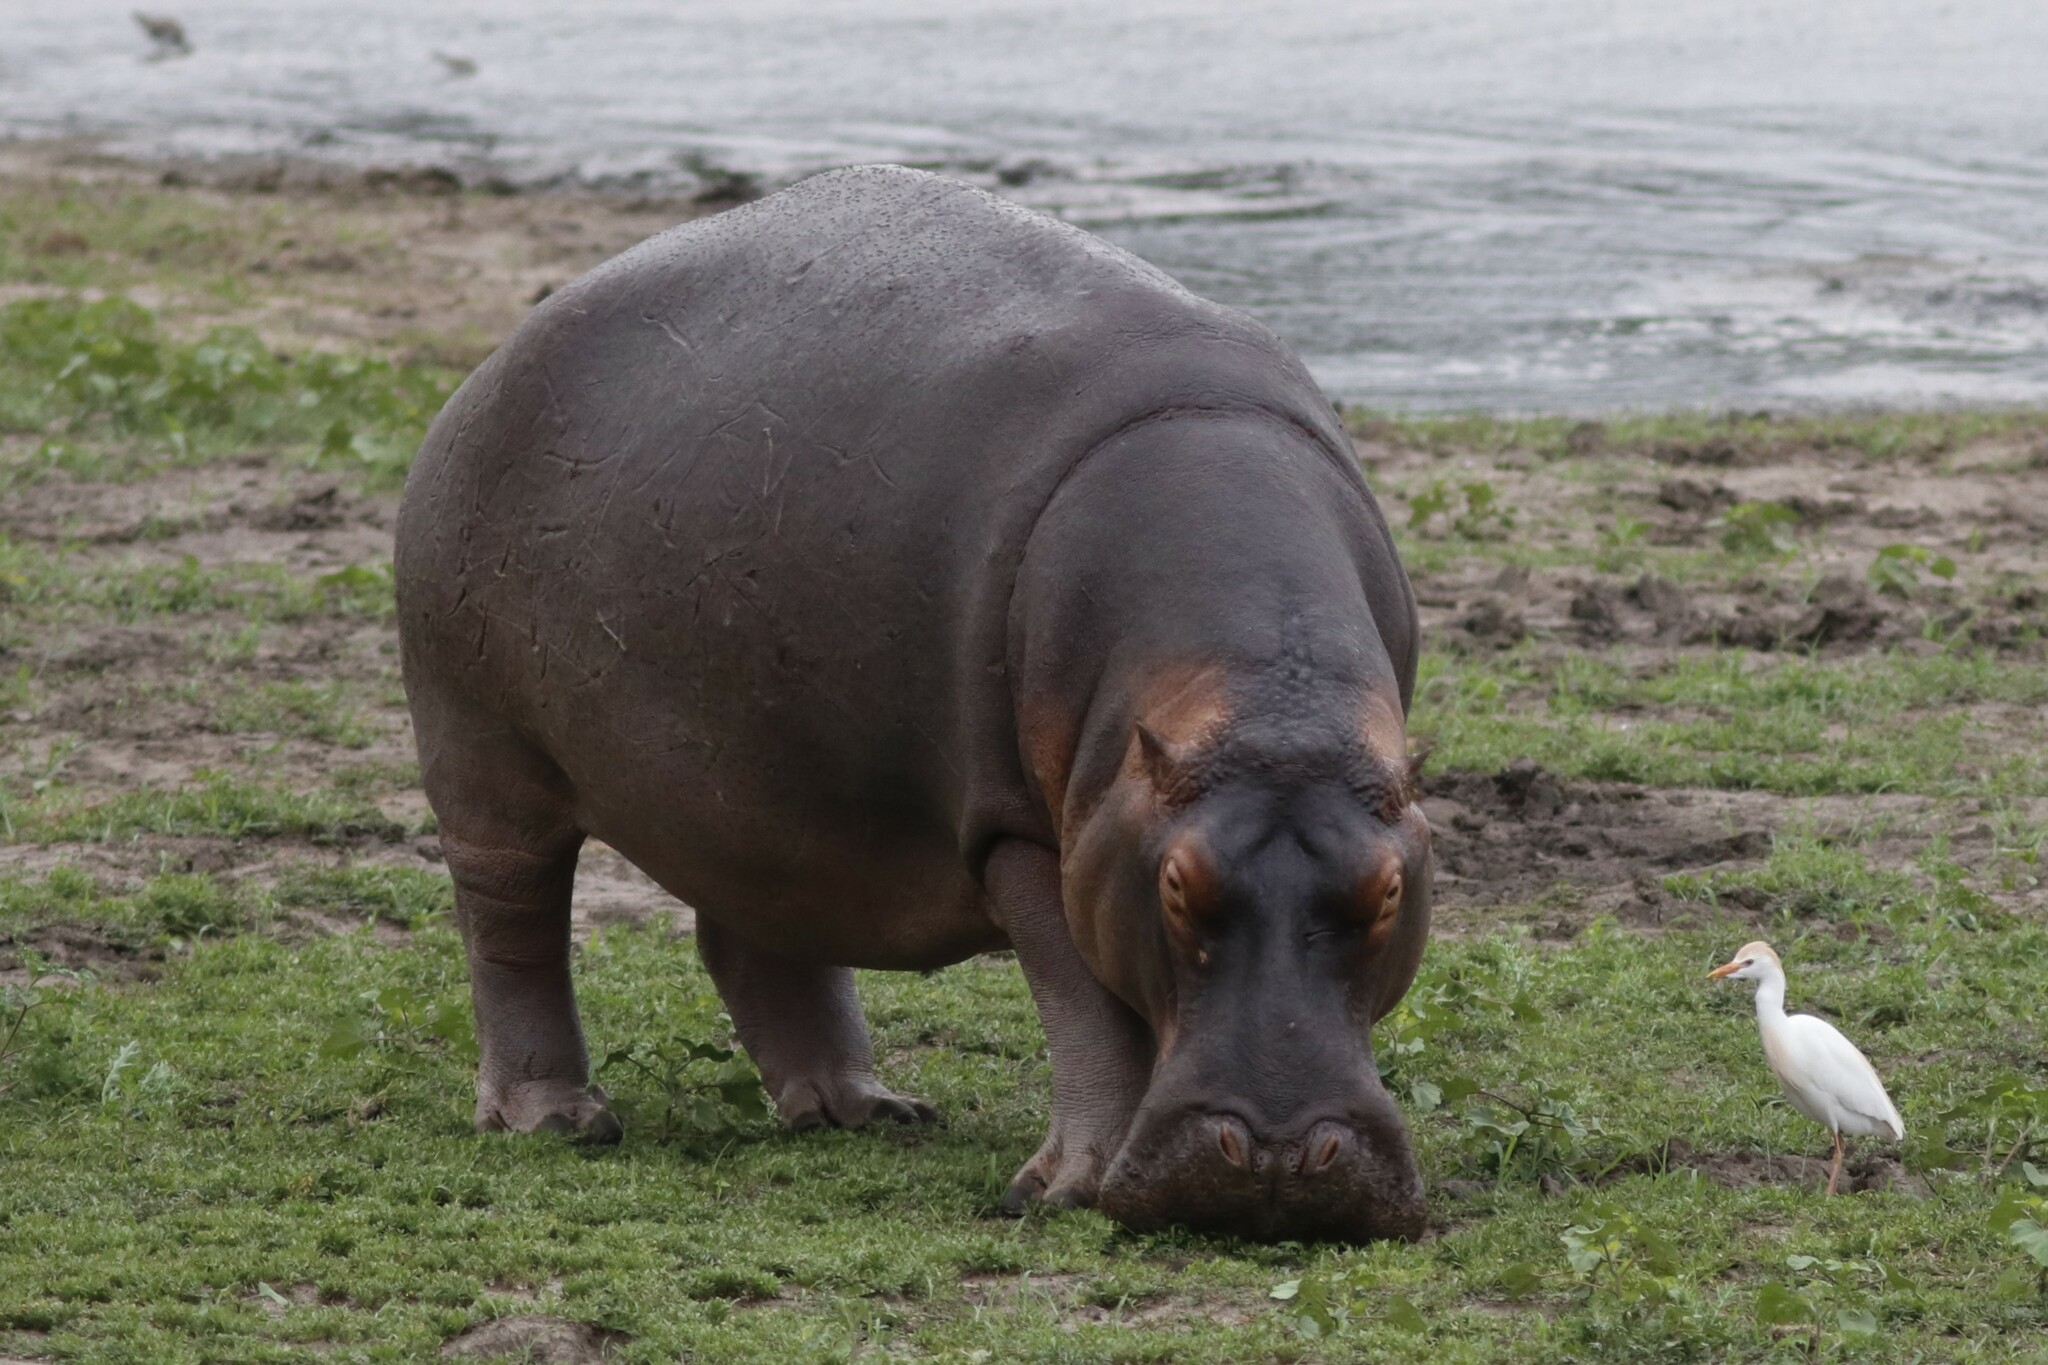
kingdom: Animalia
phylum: Chordata
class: Mammalia
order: Artiodactyla
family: Hippopotamidae
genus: Hippopotamus
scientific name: Hippopotamus amphibius
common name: Common hippopotamus
